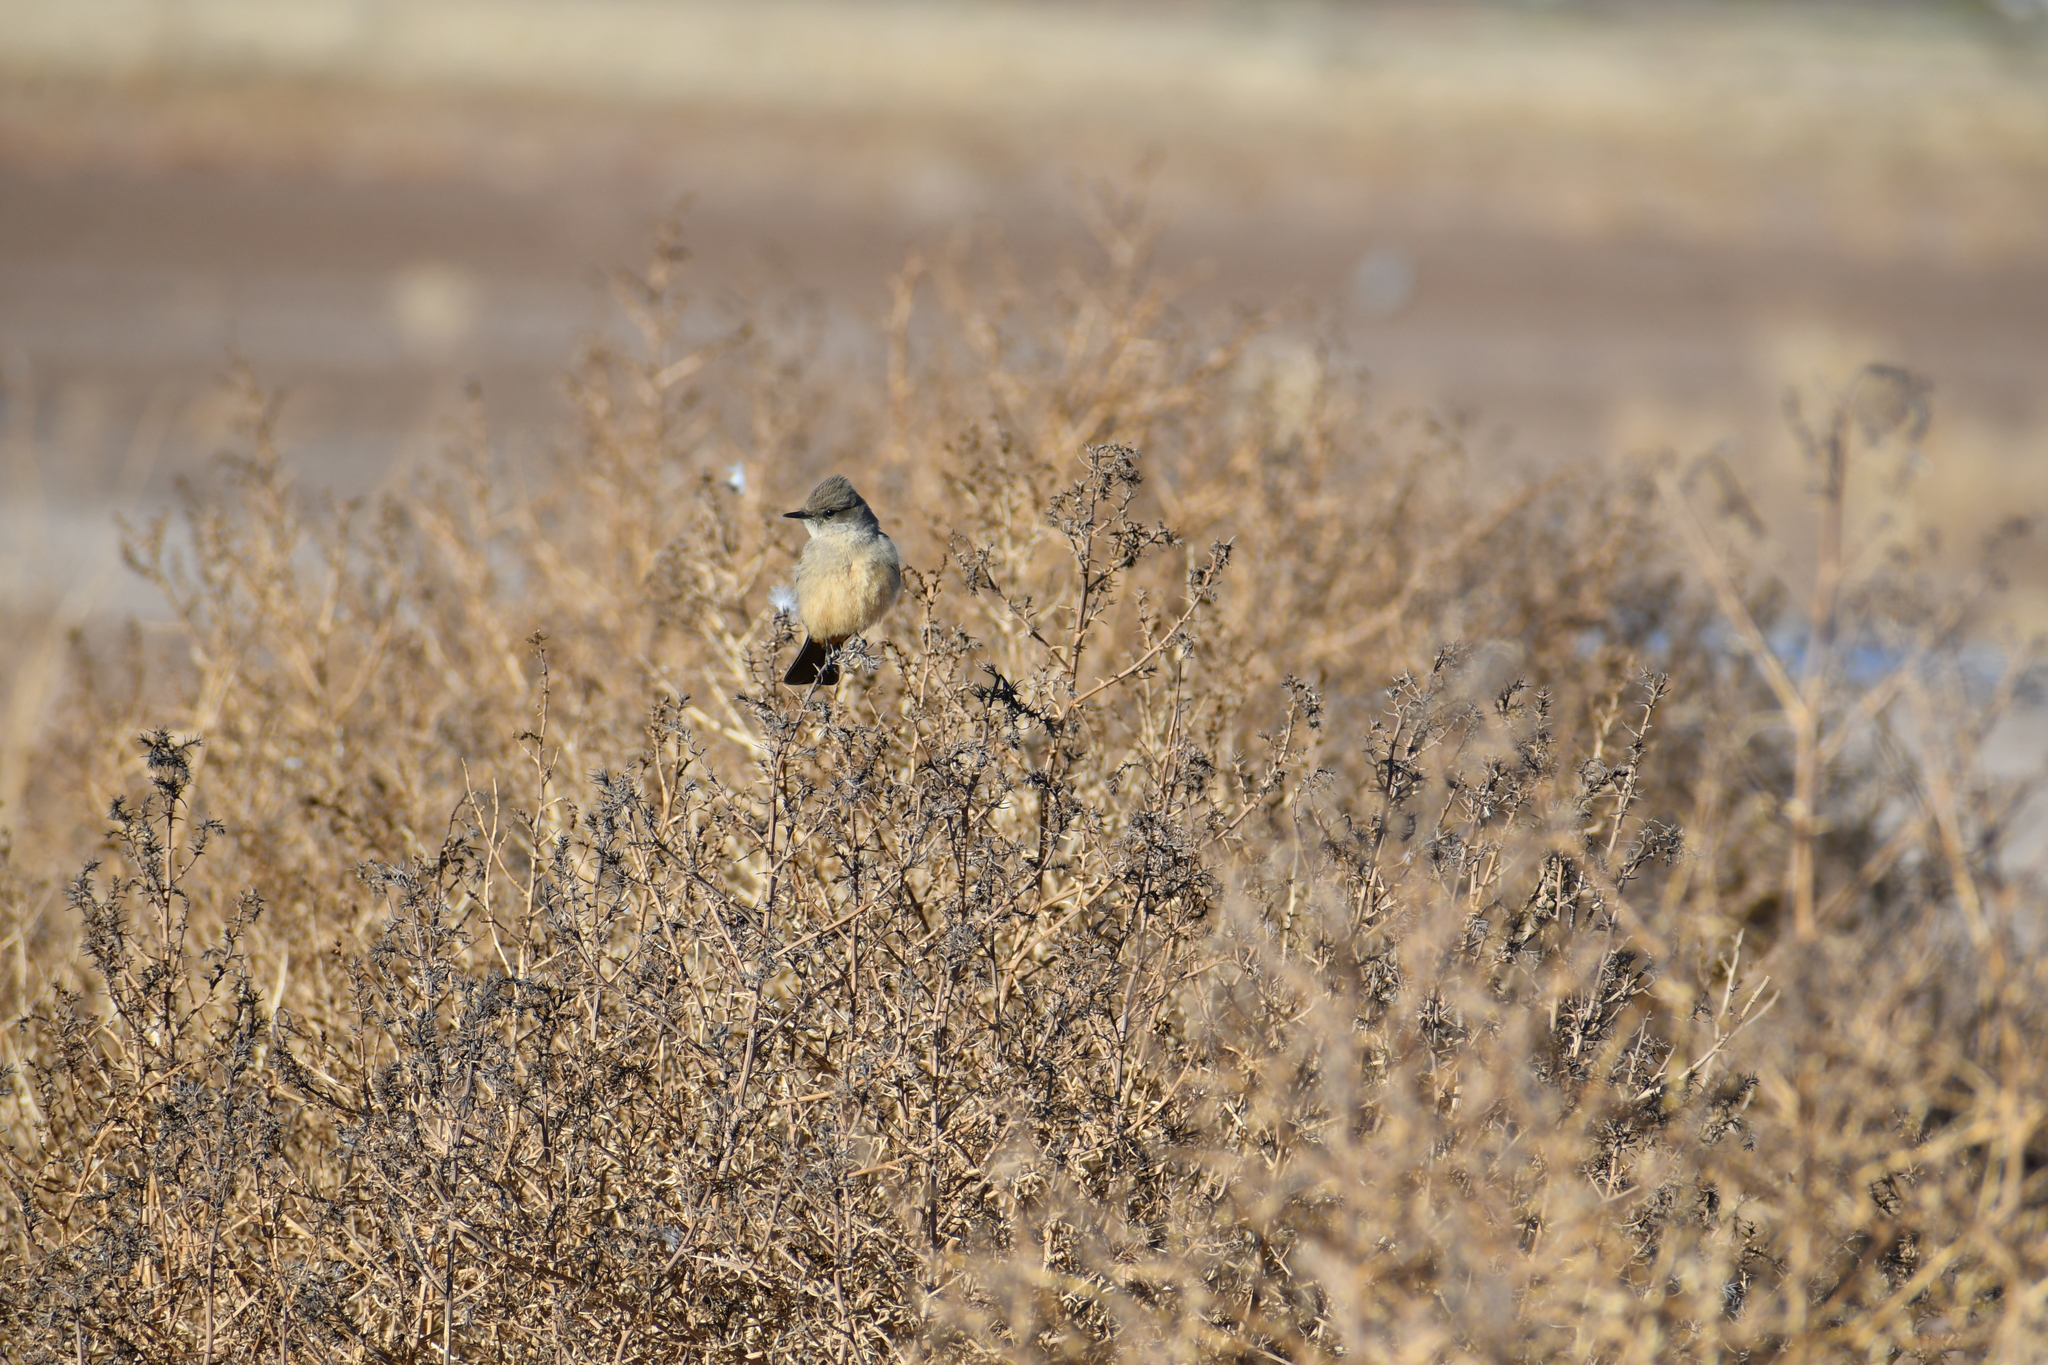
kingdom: Animalia
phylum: Chordata
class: Aves
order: Passeriformes
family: Tyrannidae
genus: Sayornis
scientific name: Sayornis saya
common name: Say's phoebe
